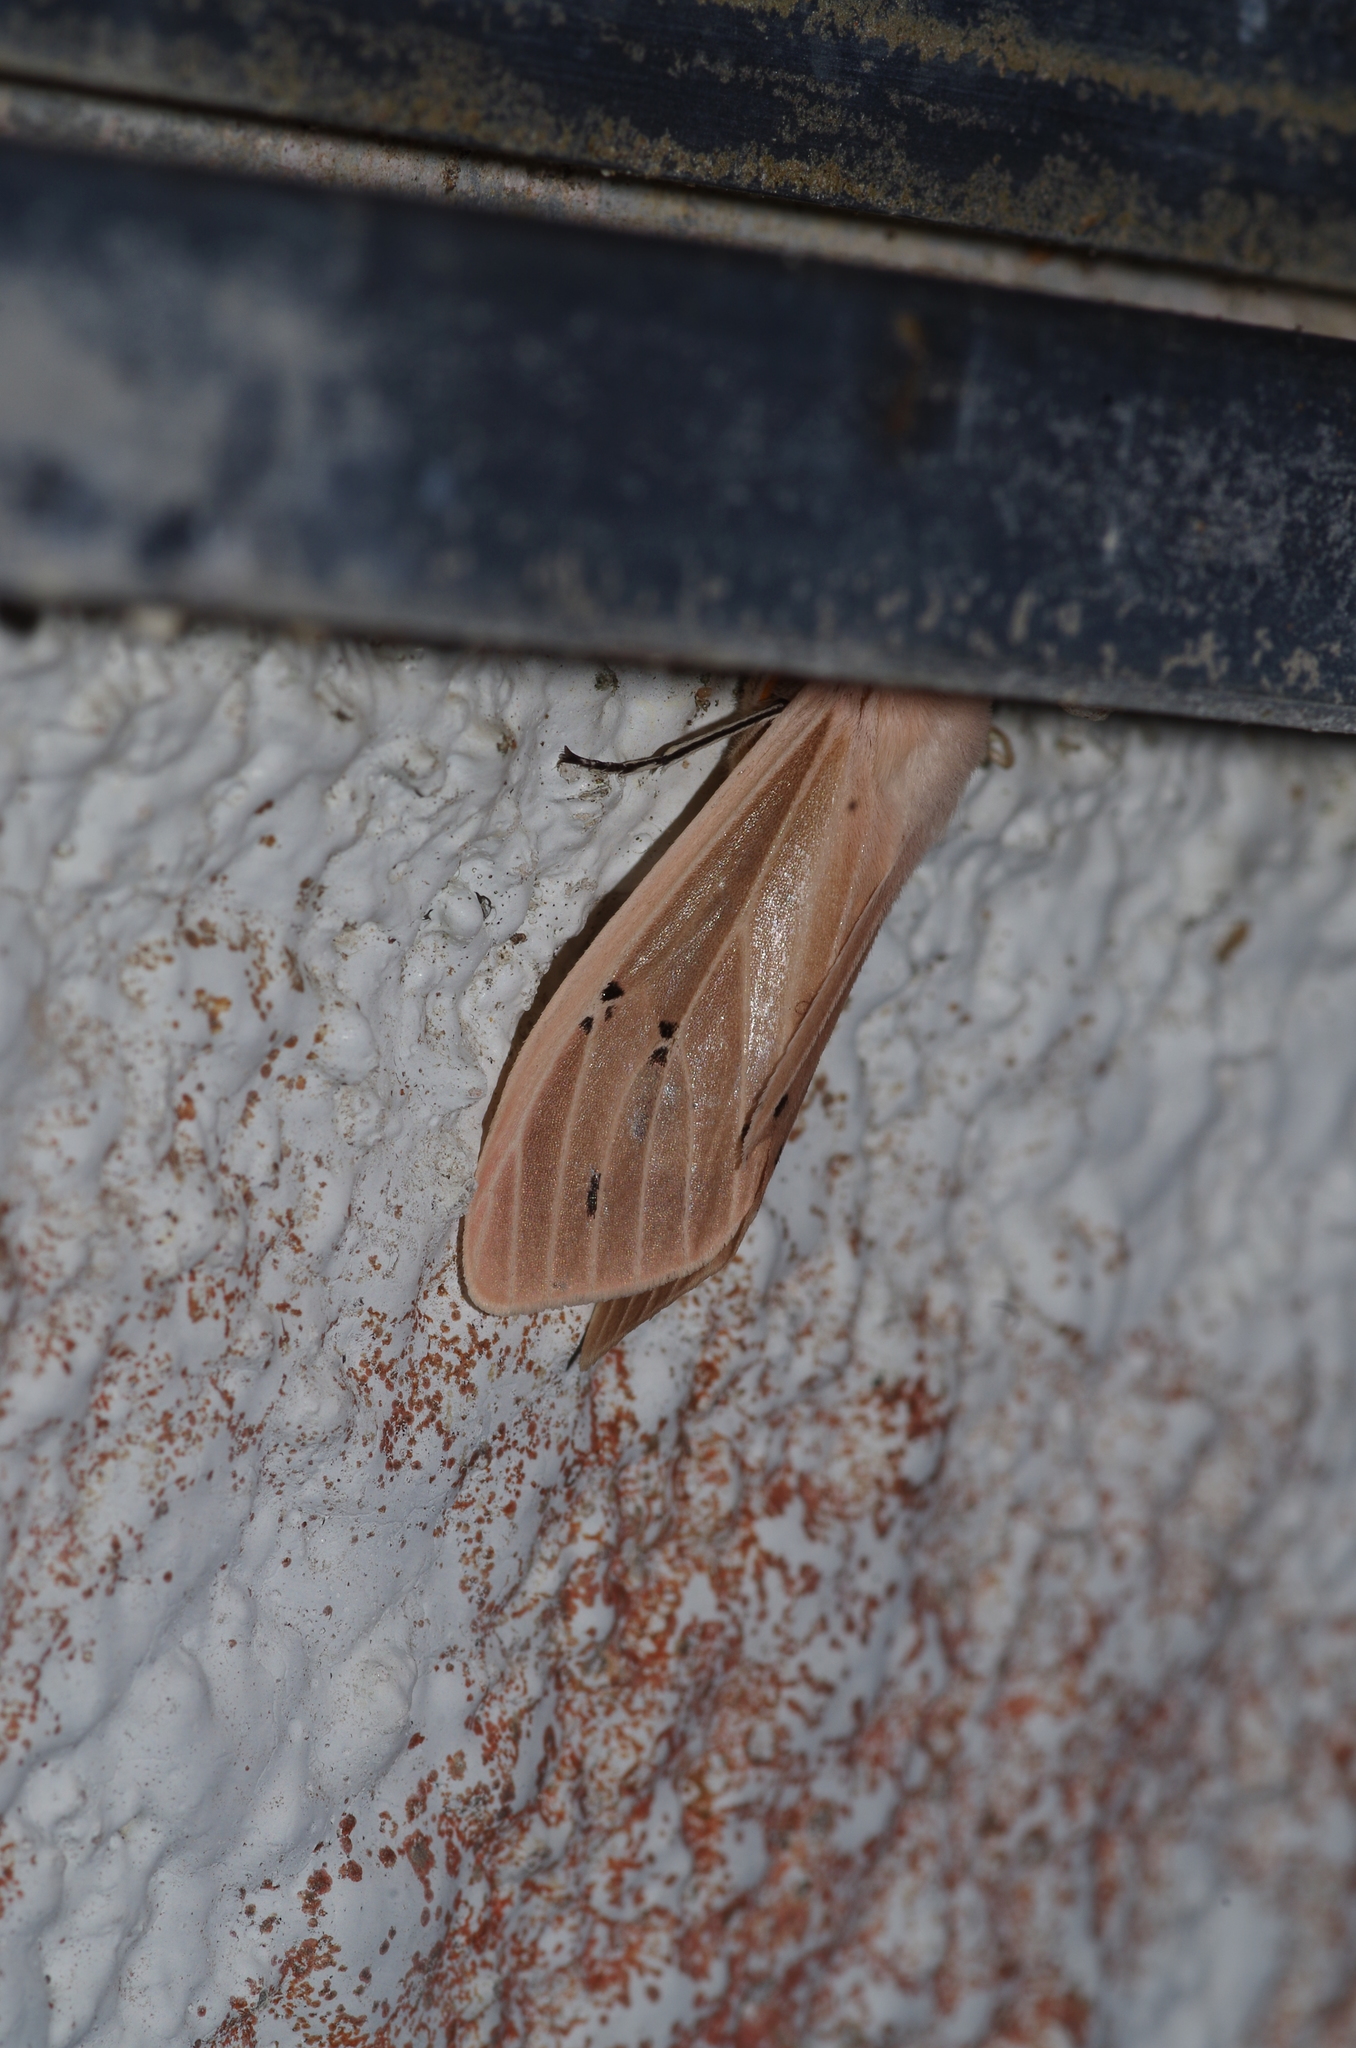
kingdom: Animalia
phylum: Arthropoda
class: Insecta
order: Lepidoptera
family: Erebidae
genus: Creatonotos
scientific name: Creatonotos transiens
